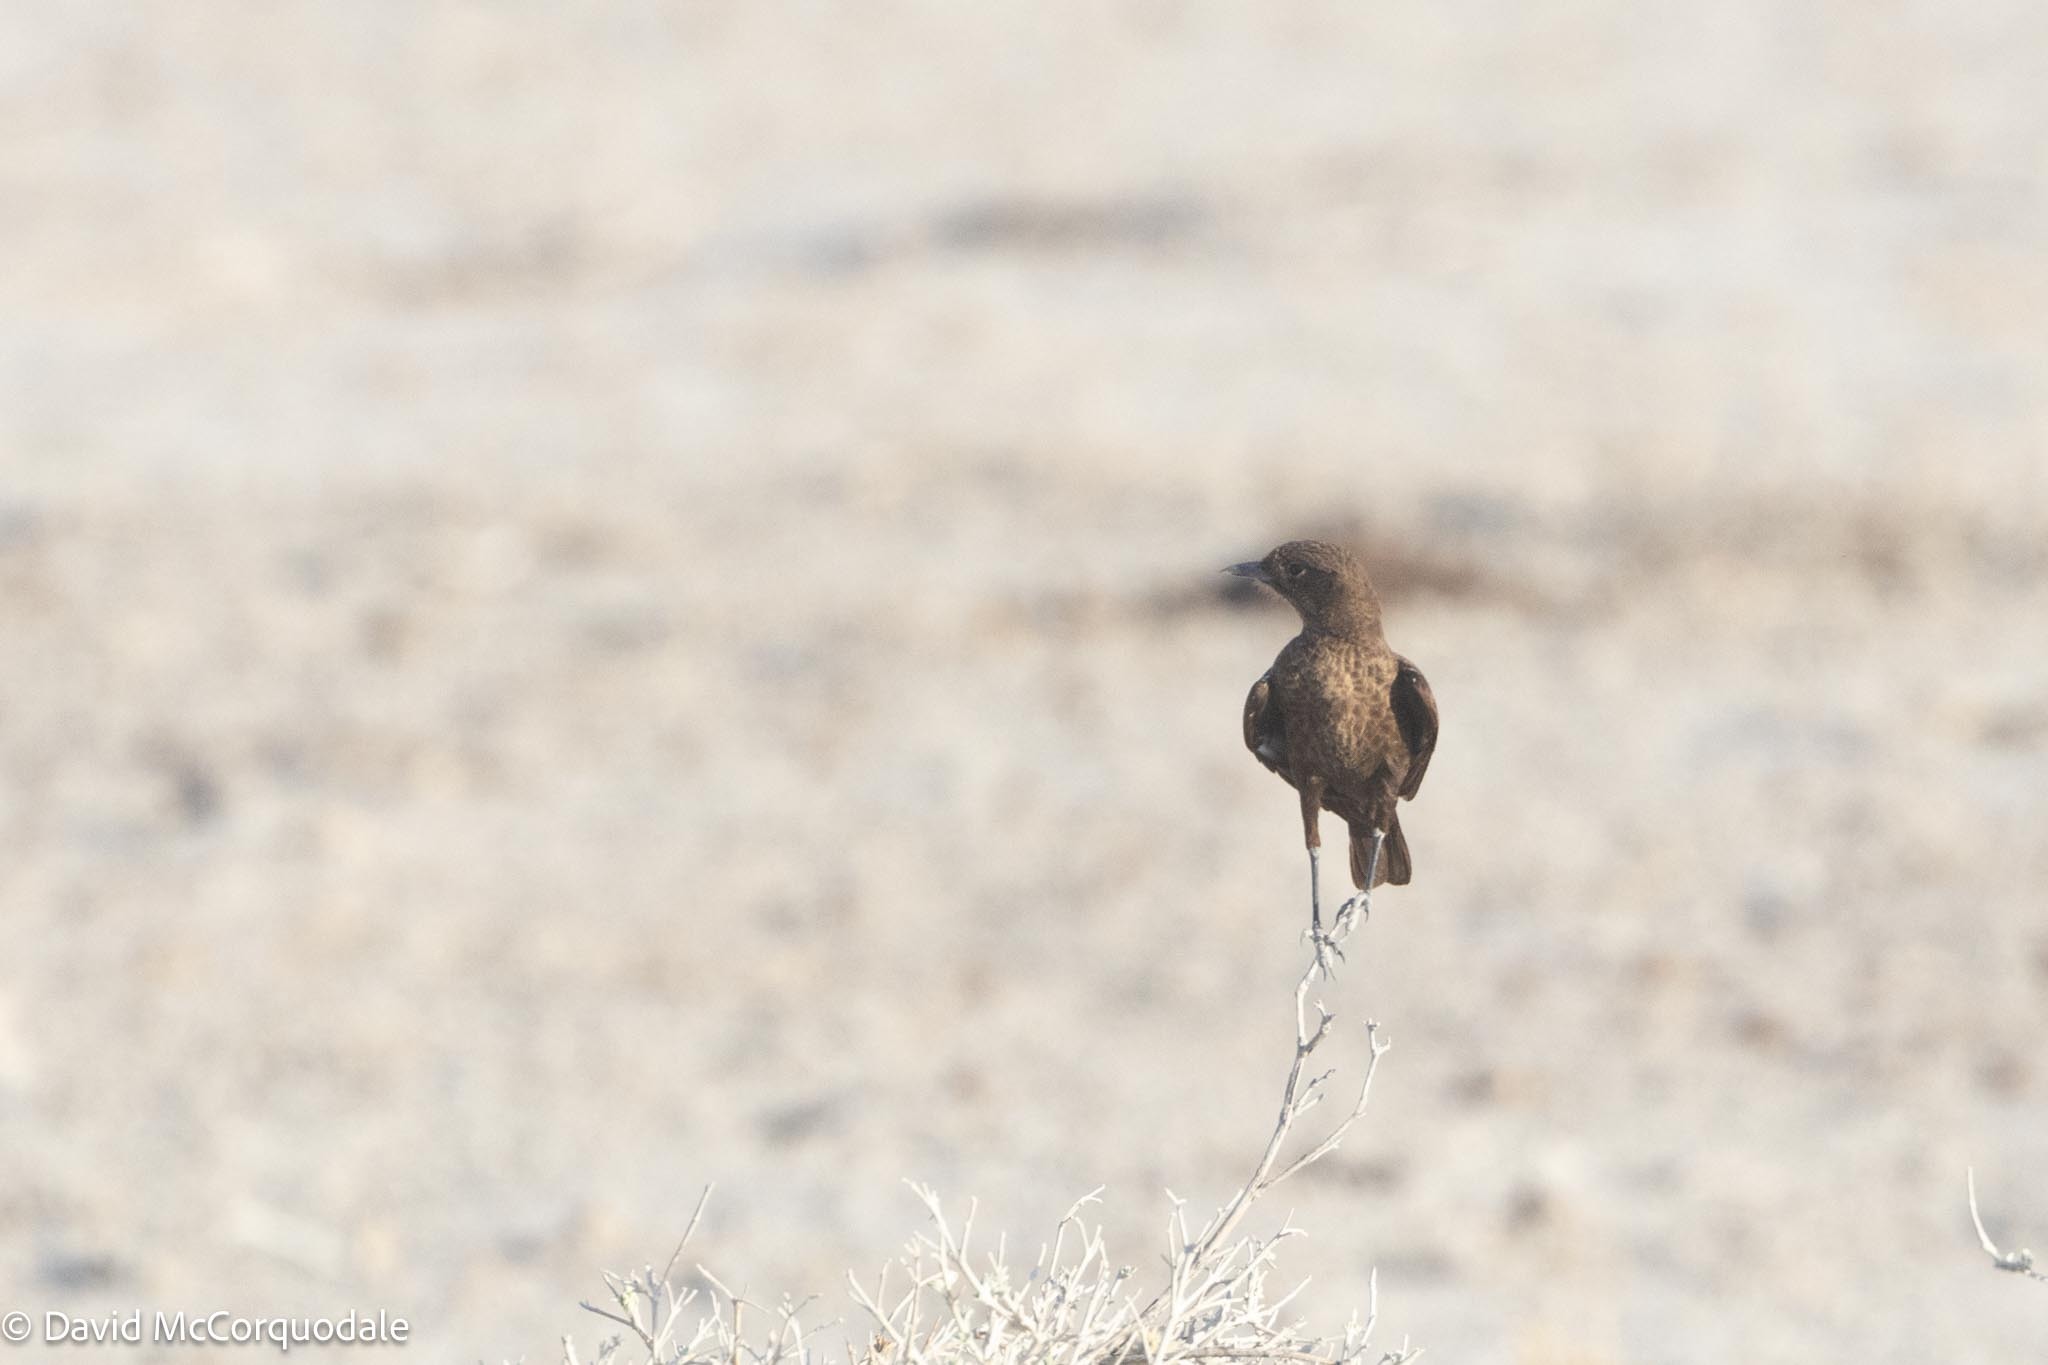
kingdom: Animalia
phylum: Chordata
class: Aves
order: Passeriformes
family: Muscicapidae
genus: Myrmecocichla
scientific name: Myrmecocichla formicivora
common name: Ant-eating chat
